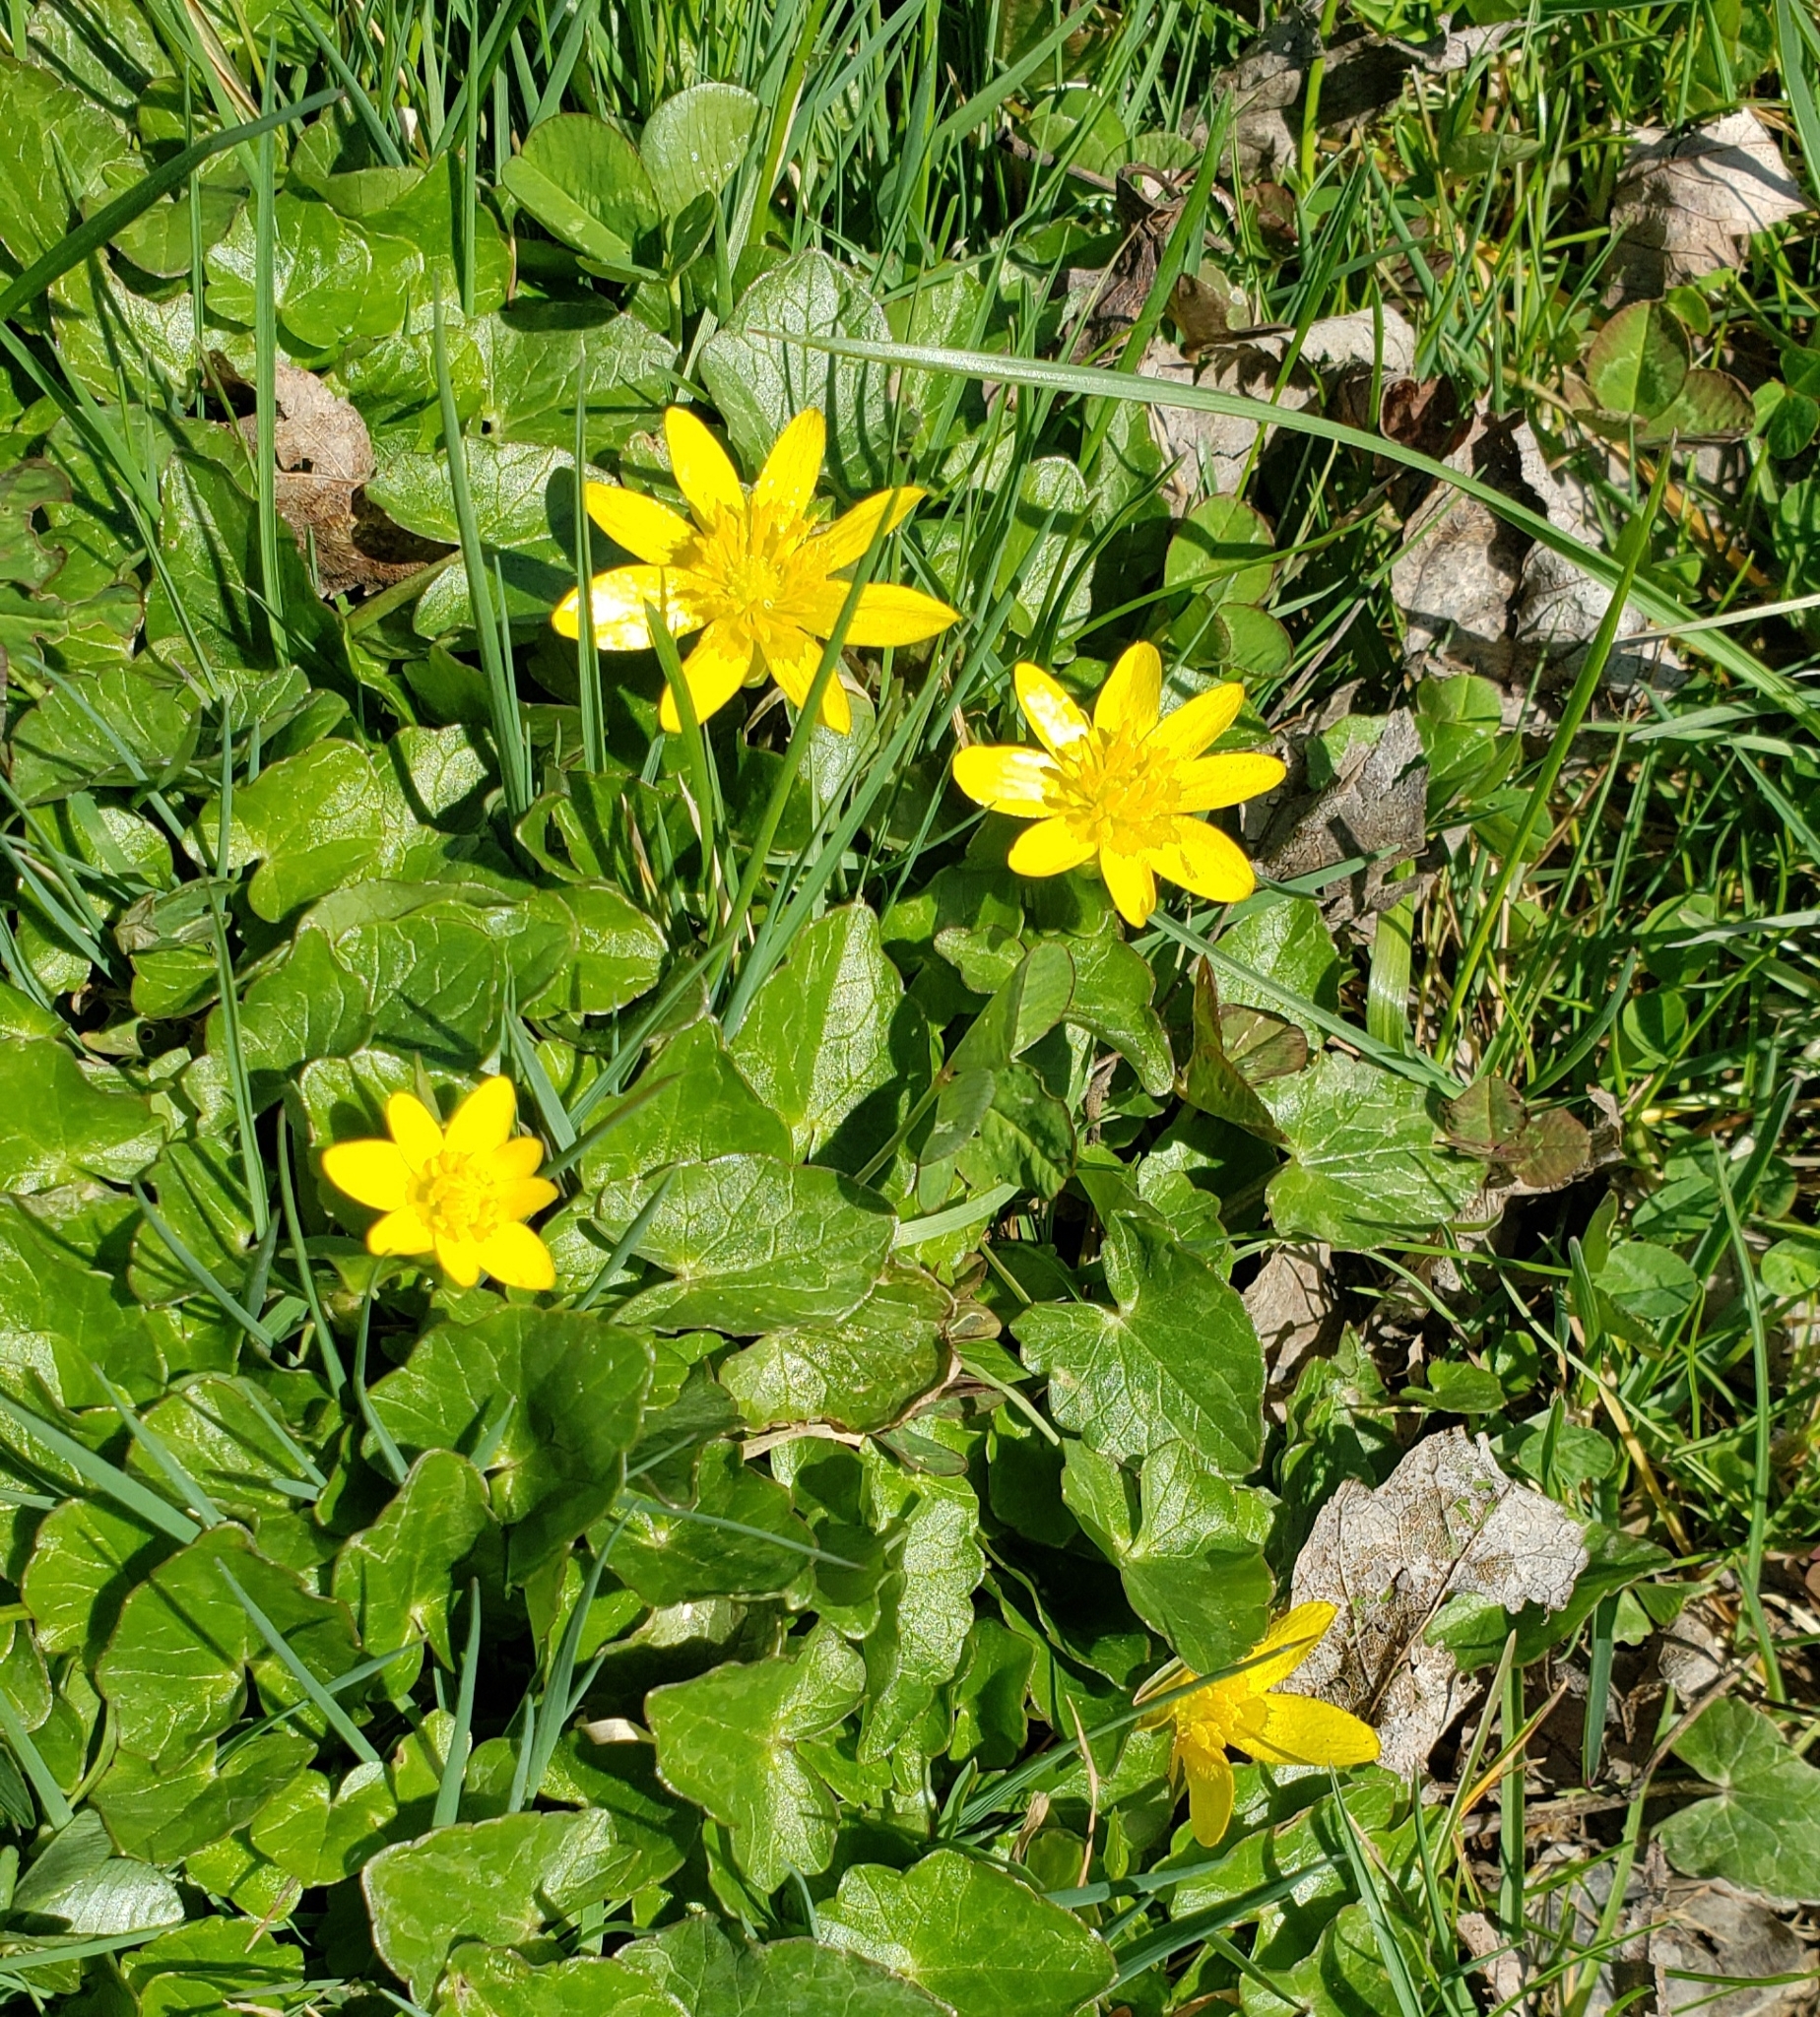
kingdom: Plantae
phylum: Tracheophyta
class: Magnoliopsida
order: Ranunculales
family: Ranunculaceae
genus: Ficaria
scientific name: Ficaria verna
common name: Lesser celandine
